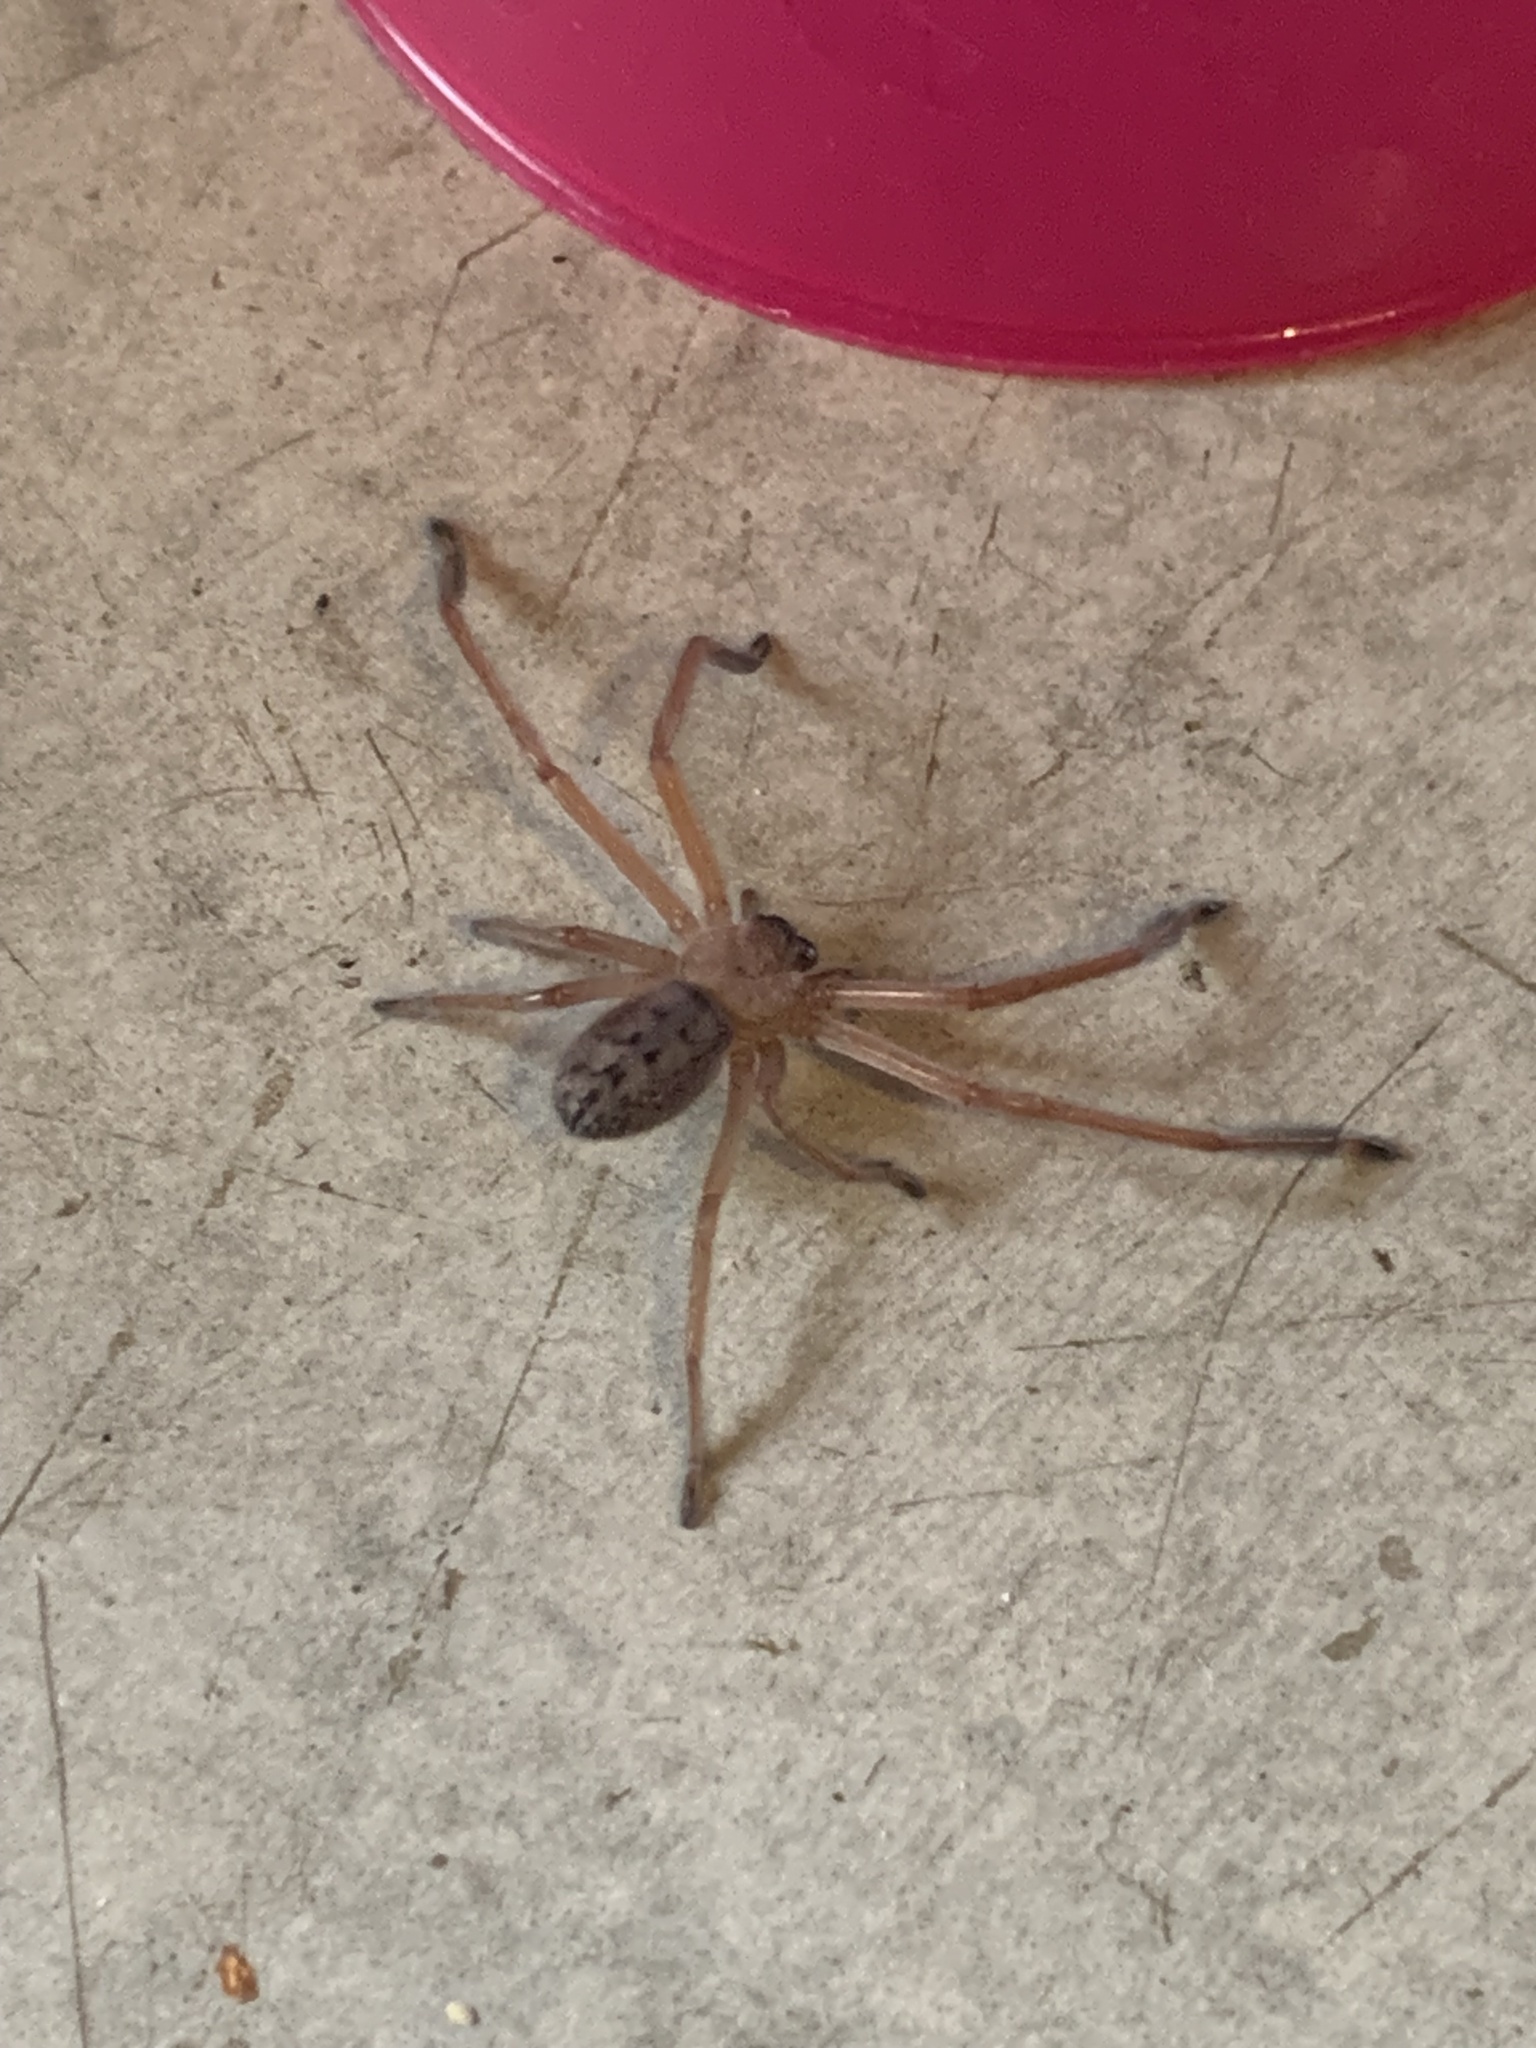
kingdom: Animalia
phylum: Arthropoda
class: Arachnida
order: Araneae
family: Sparassidae
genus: Delena
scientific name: Delena cancerides
